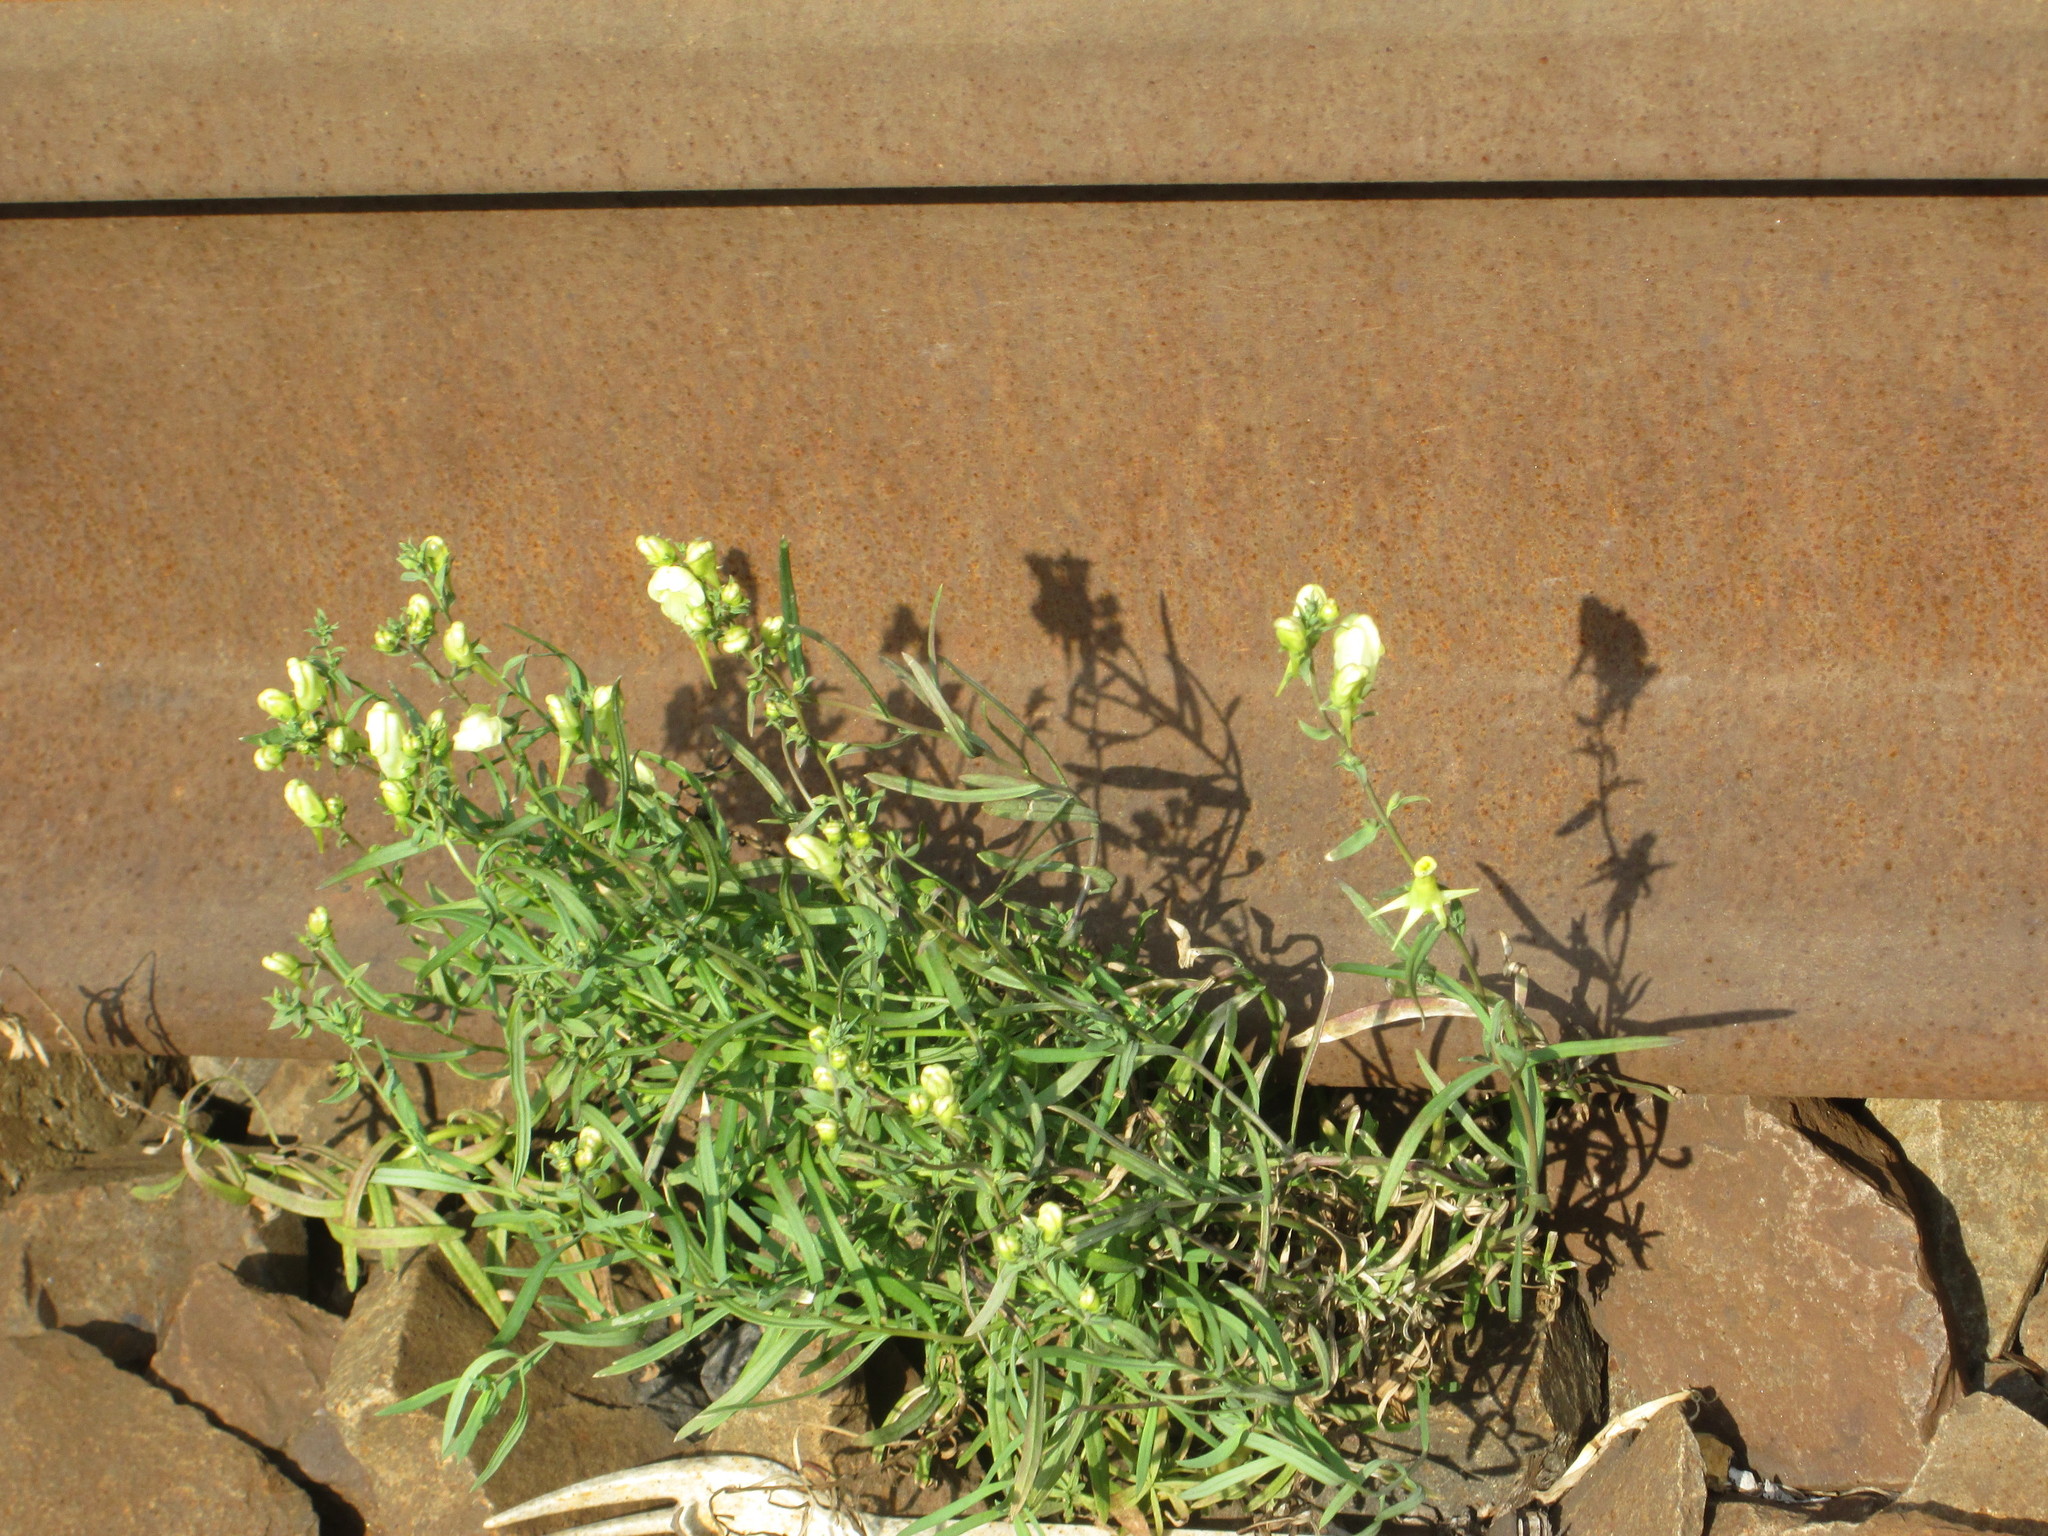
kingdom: Plantae
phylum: Tracheophyta
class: Magnoliopsida
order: Lamiales
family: Plantaginaceae
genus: Linaria
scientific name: Linaria vulgaris
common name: Butter and eggs
